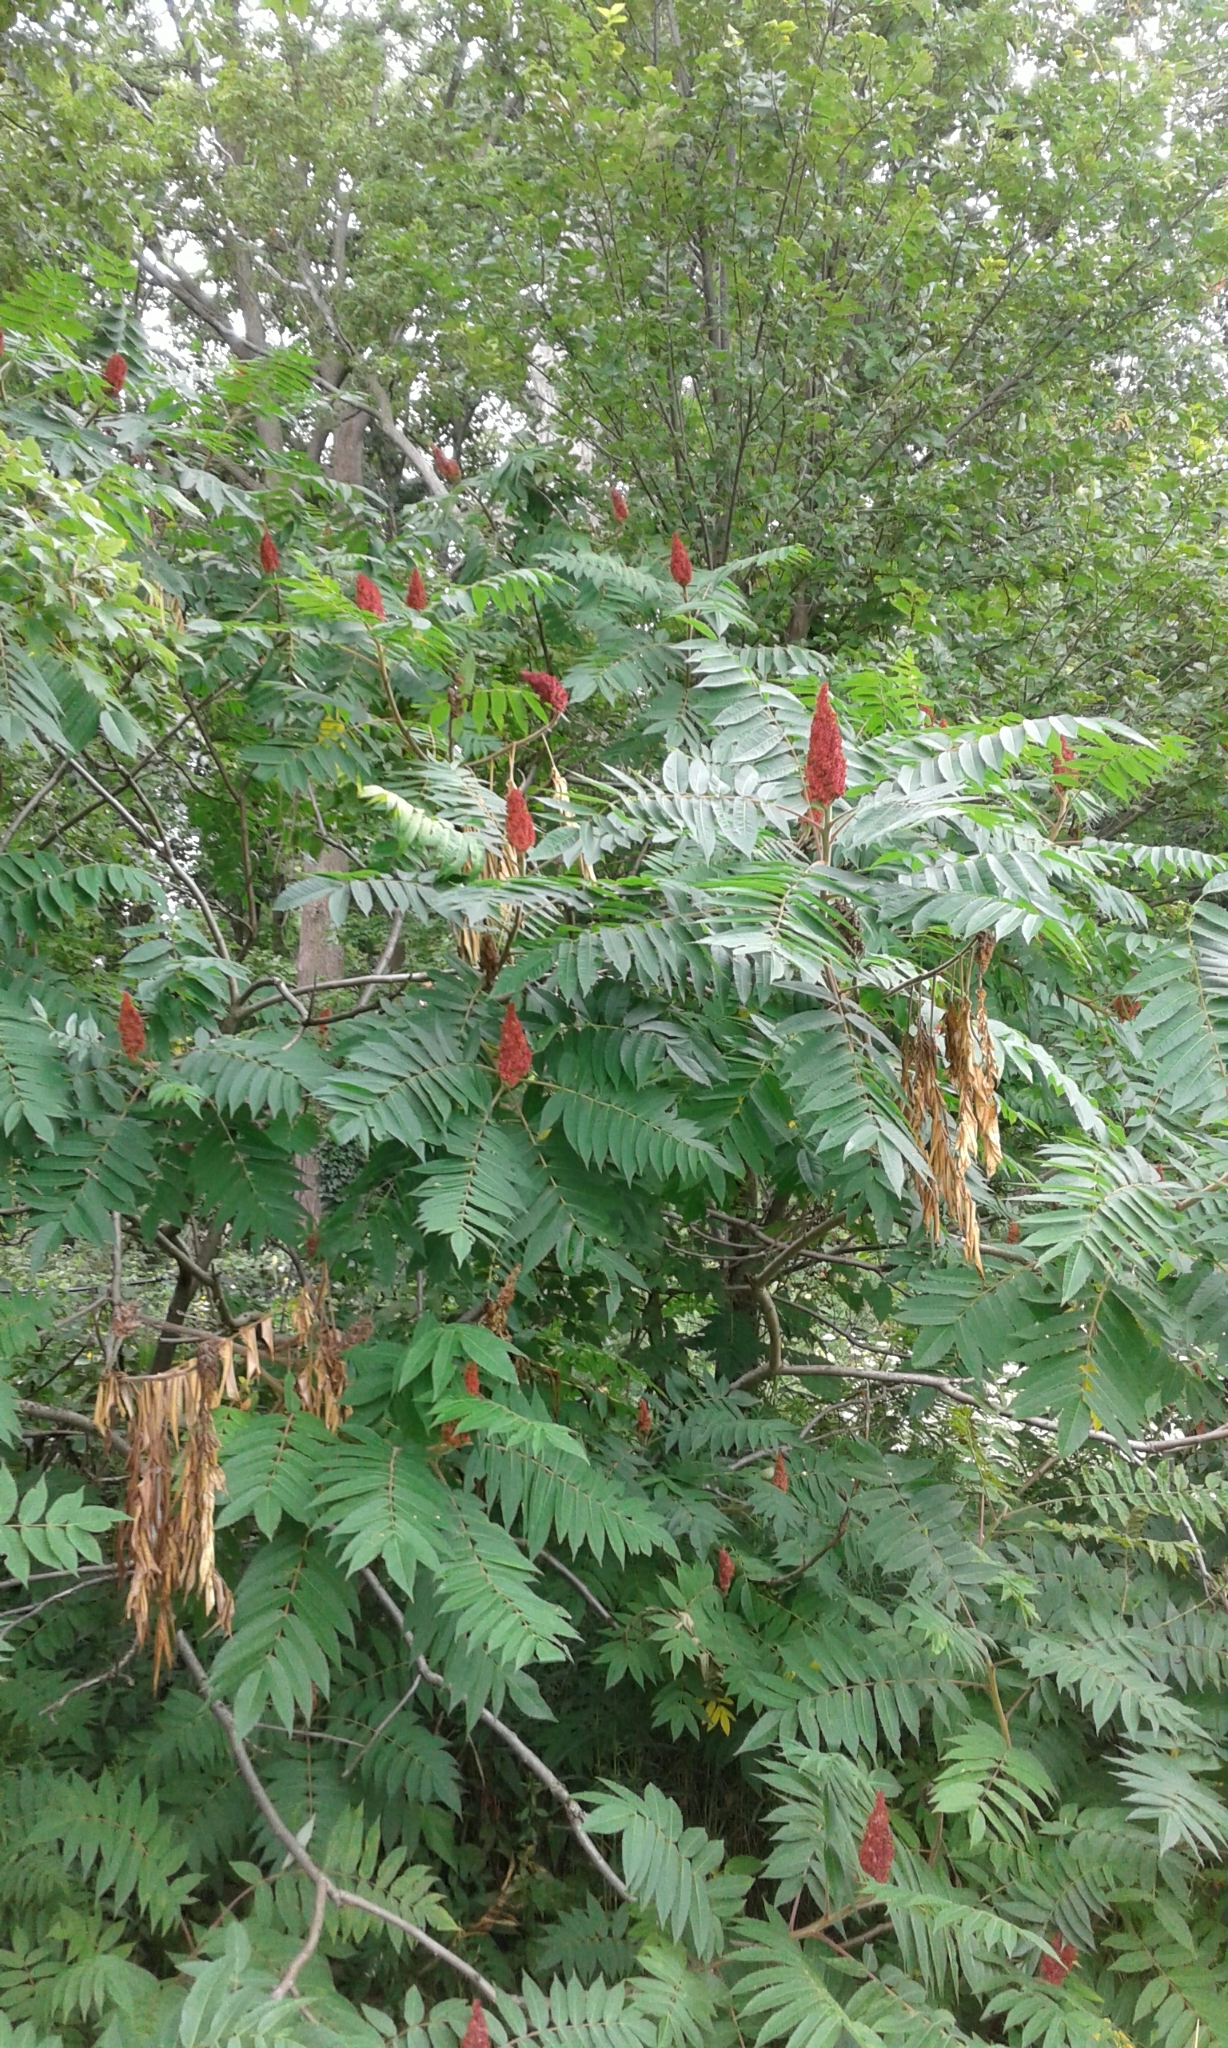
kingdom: Plantae
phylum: Tracheophyta
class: Magnoliopsida
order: Sapindales
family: Anacardiaceae
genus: Rhus
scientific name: Rhus typhina
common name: Staghorn sumac
